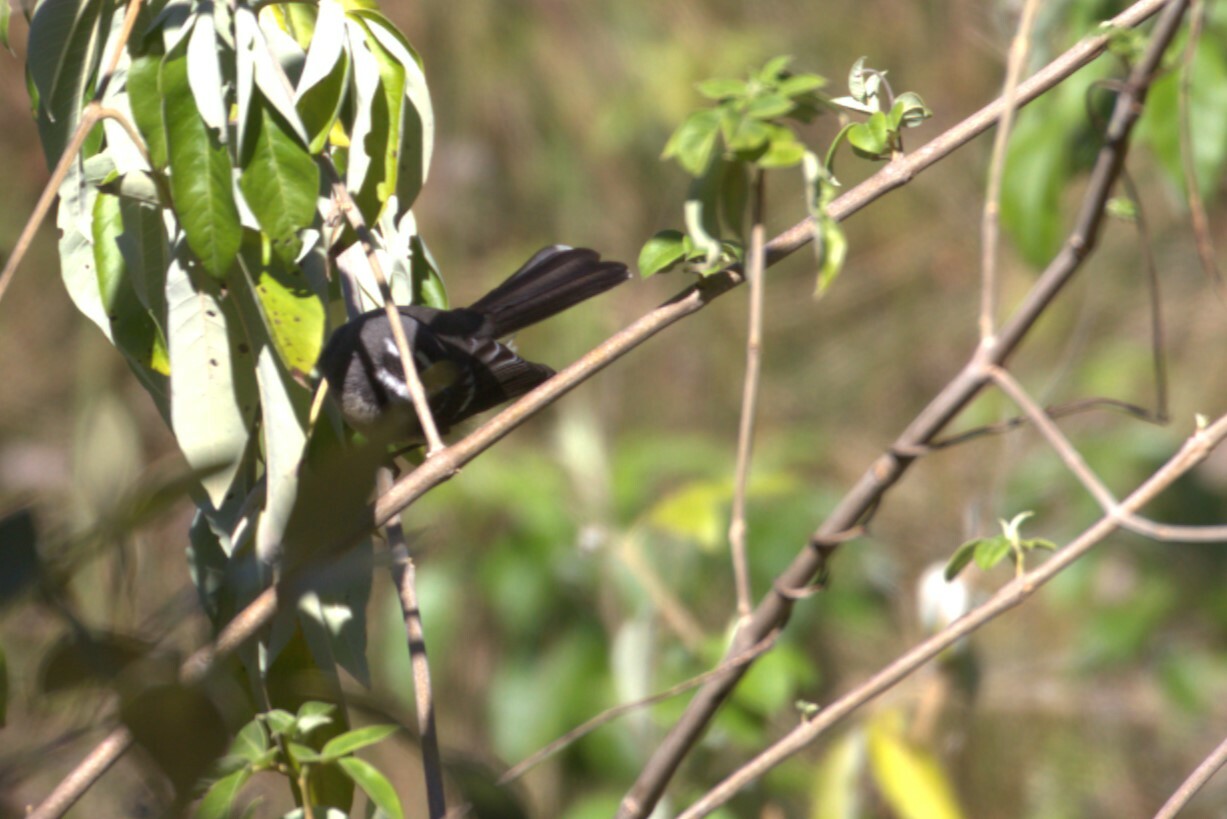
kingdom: Animalia
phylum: Chordata
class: Aves
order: Passeriformes
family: Rhipiduridae
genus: Rhipidura
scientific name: Rhipidura albiscapa
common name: Grey fantail
